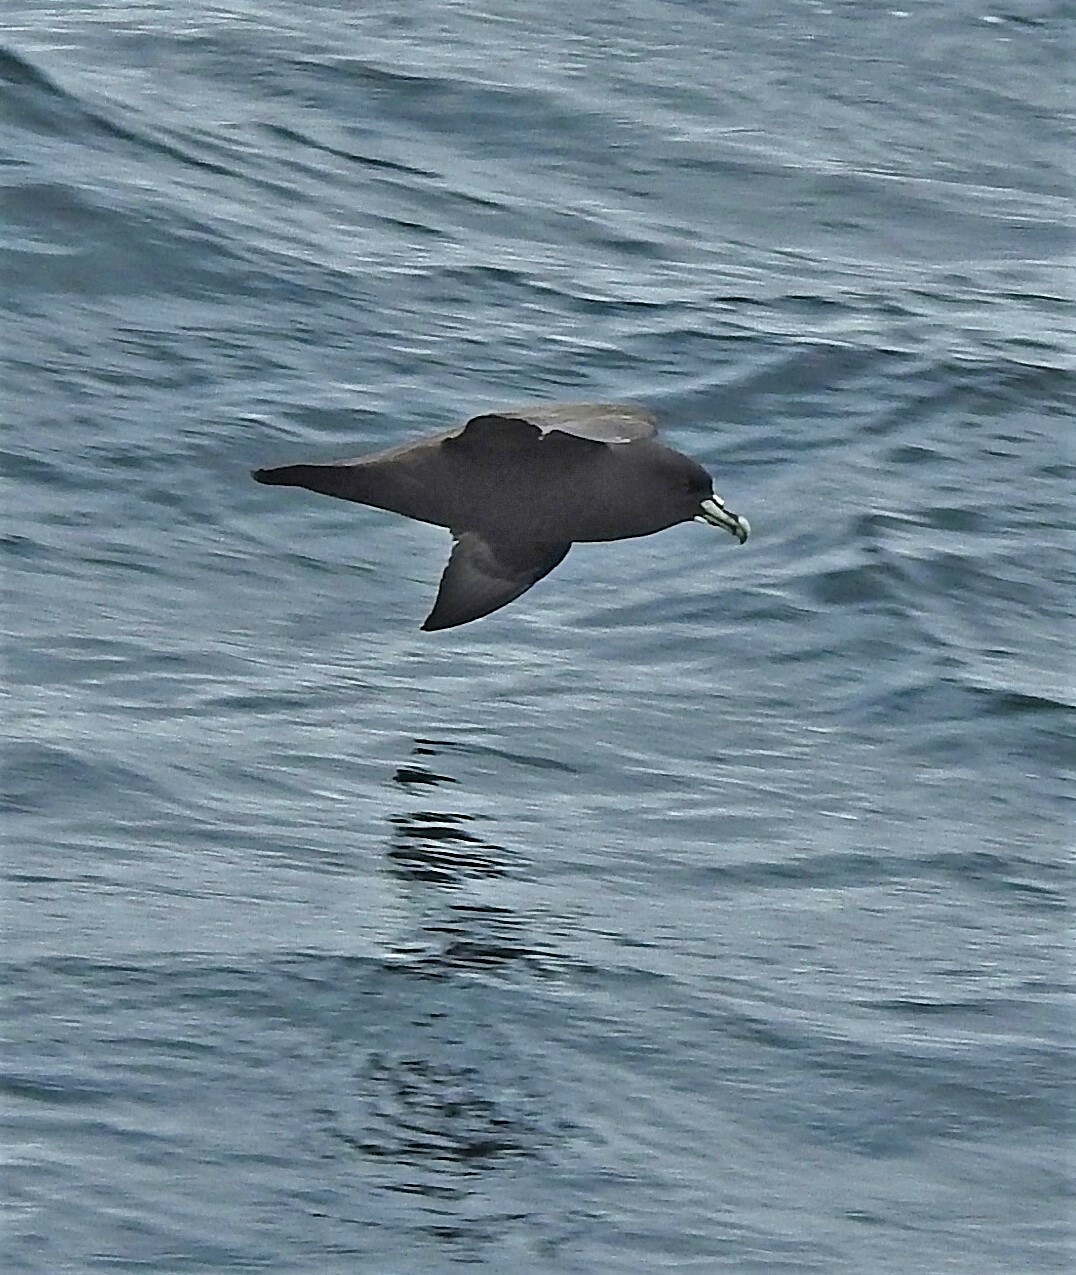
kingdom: Animalia
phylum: Chordata
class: Aves
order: Procellariiformes
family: Procellariidae
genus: Procellaria
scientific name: Procellaria aequinoctialis
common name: White-chinned petrel
